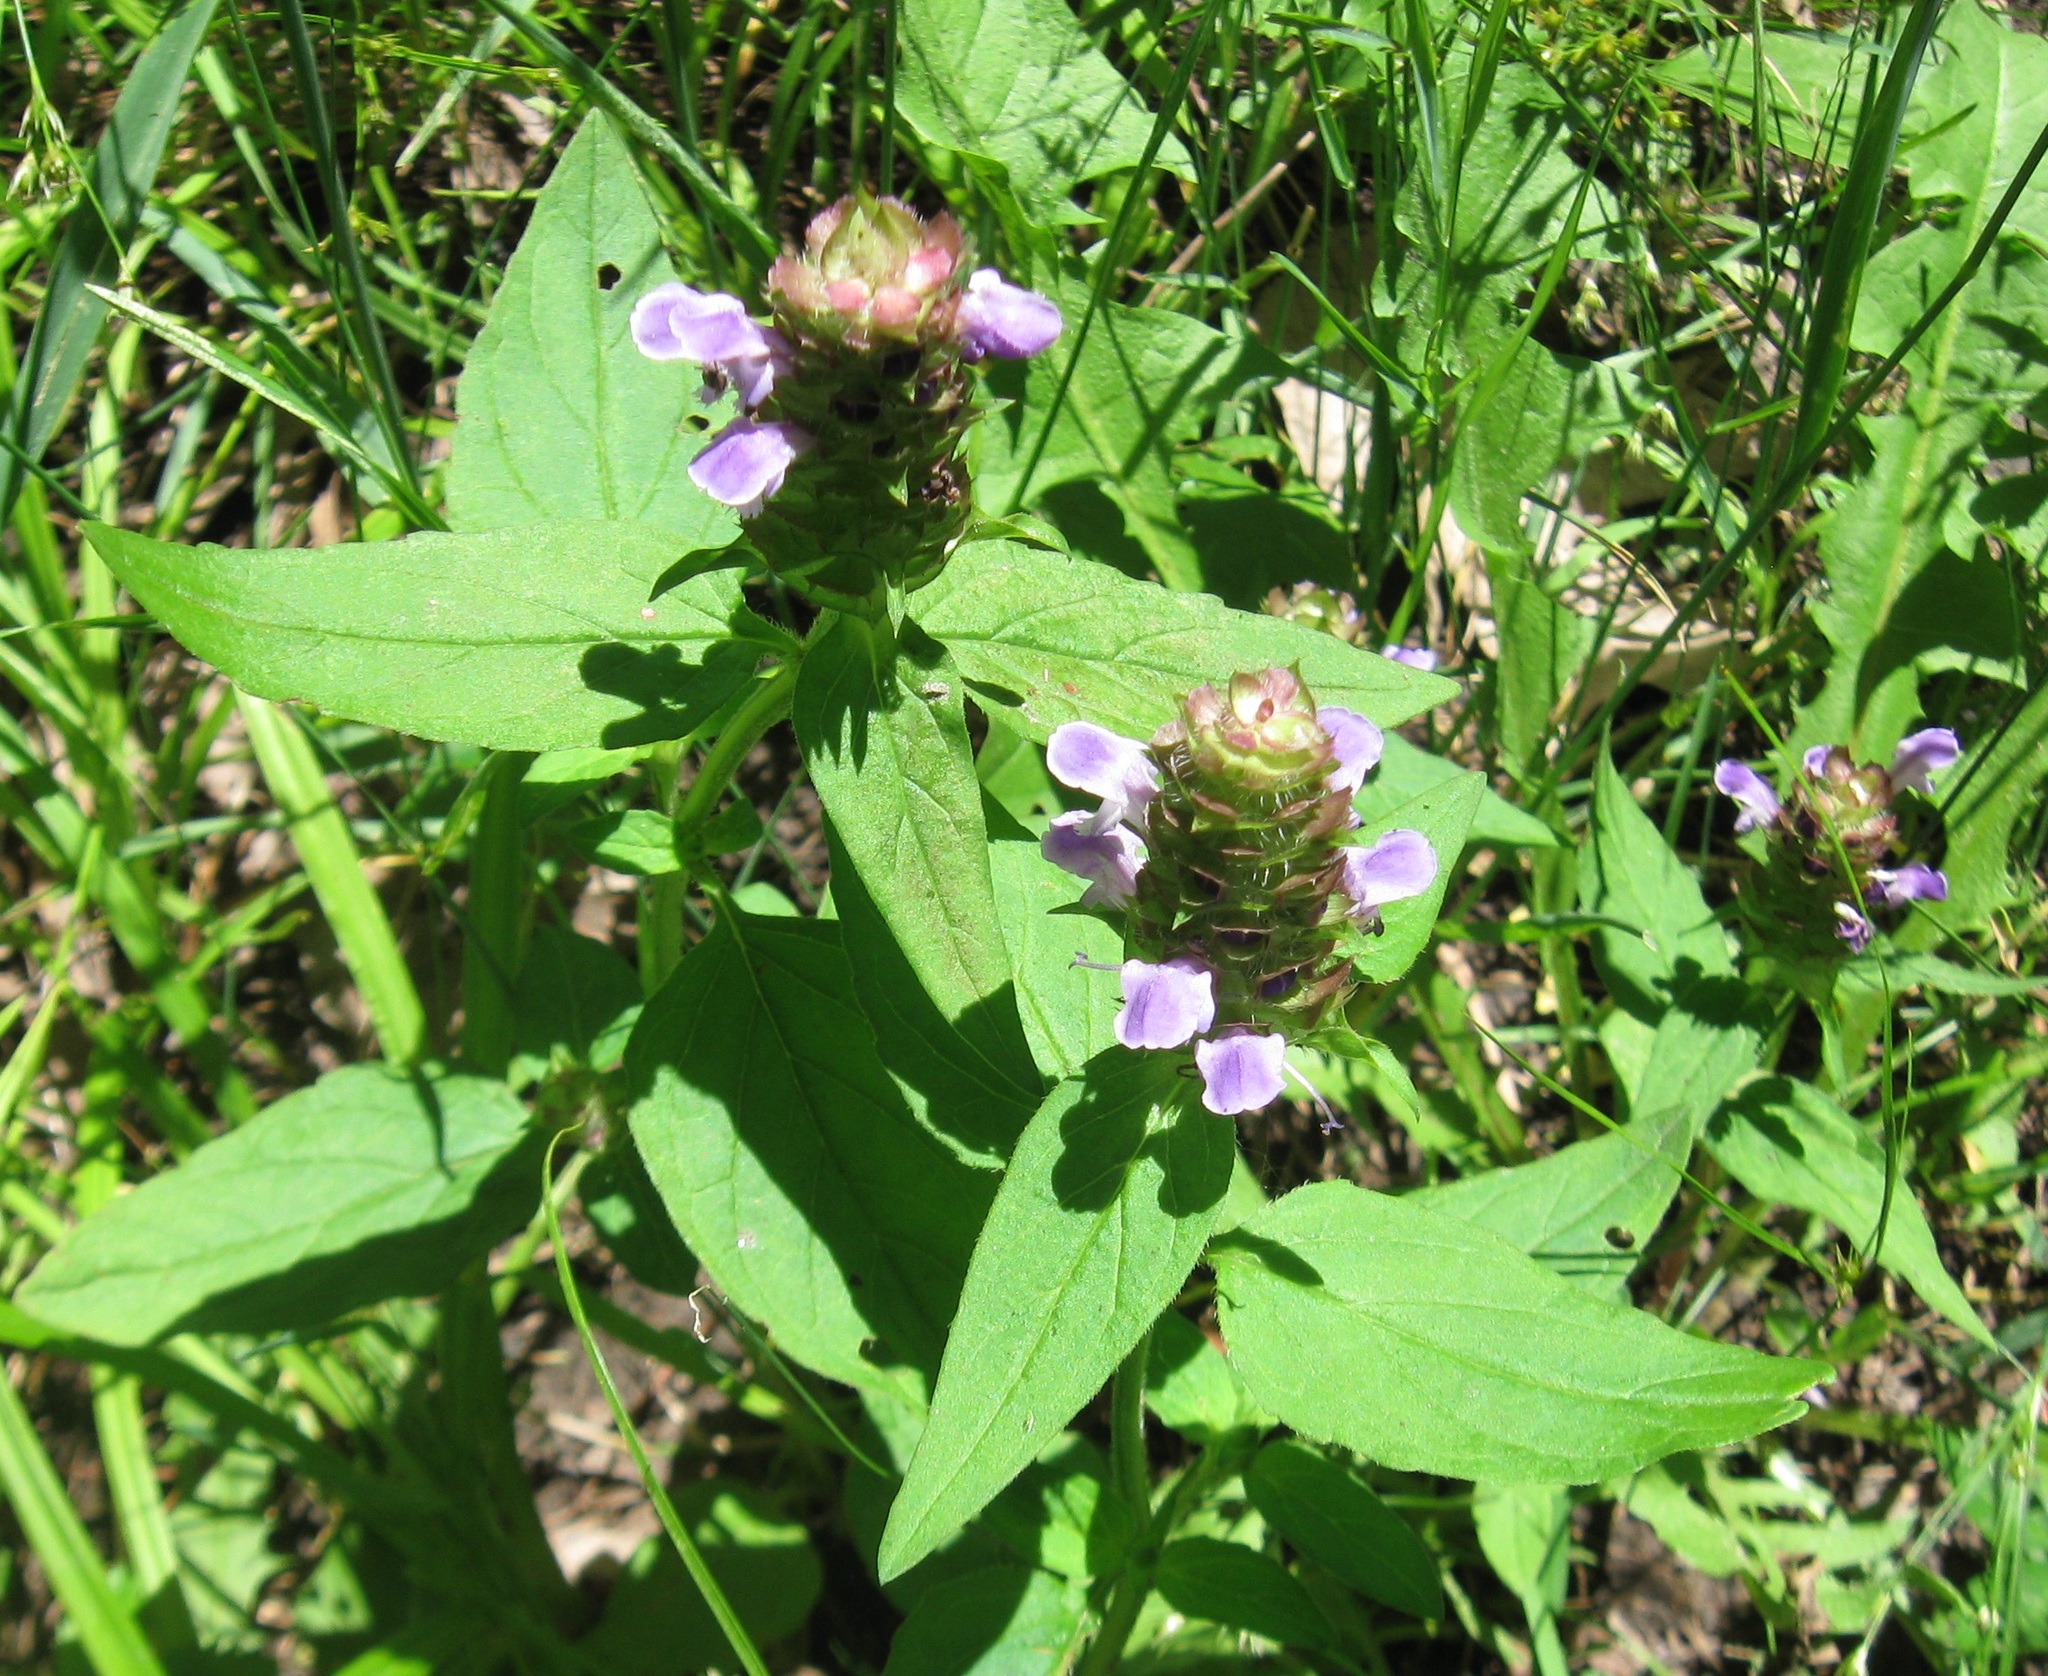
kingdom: Plantae
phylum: Tracheophyta
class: Magnoliopsida
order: Lamiales
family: Lamiaceae
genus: Prunella
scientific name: Prunella vulgaris
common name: Heal-all
